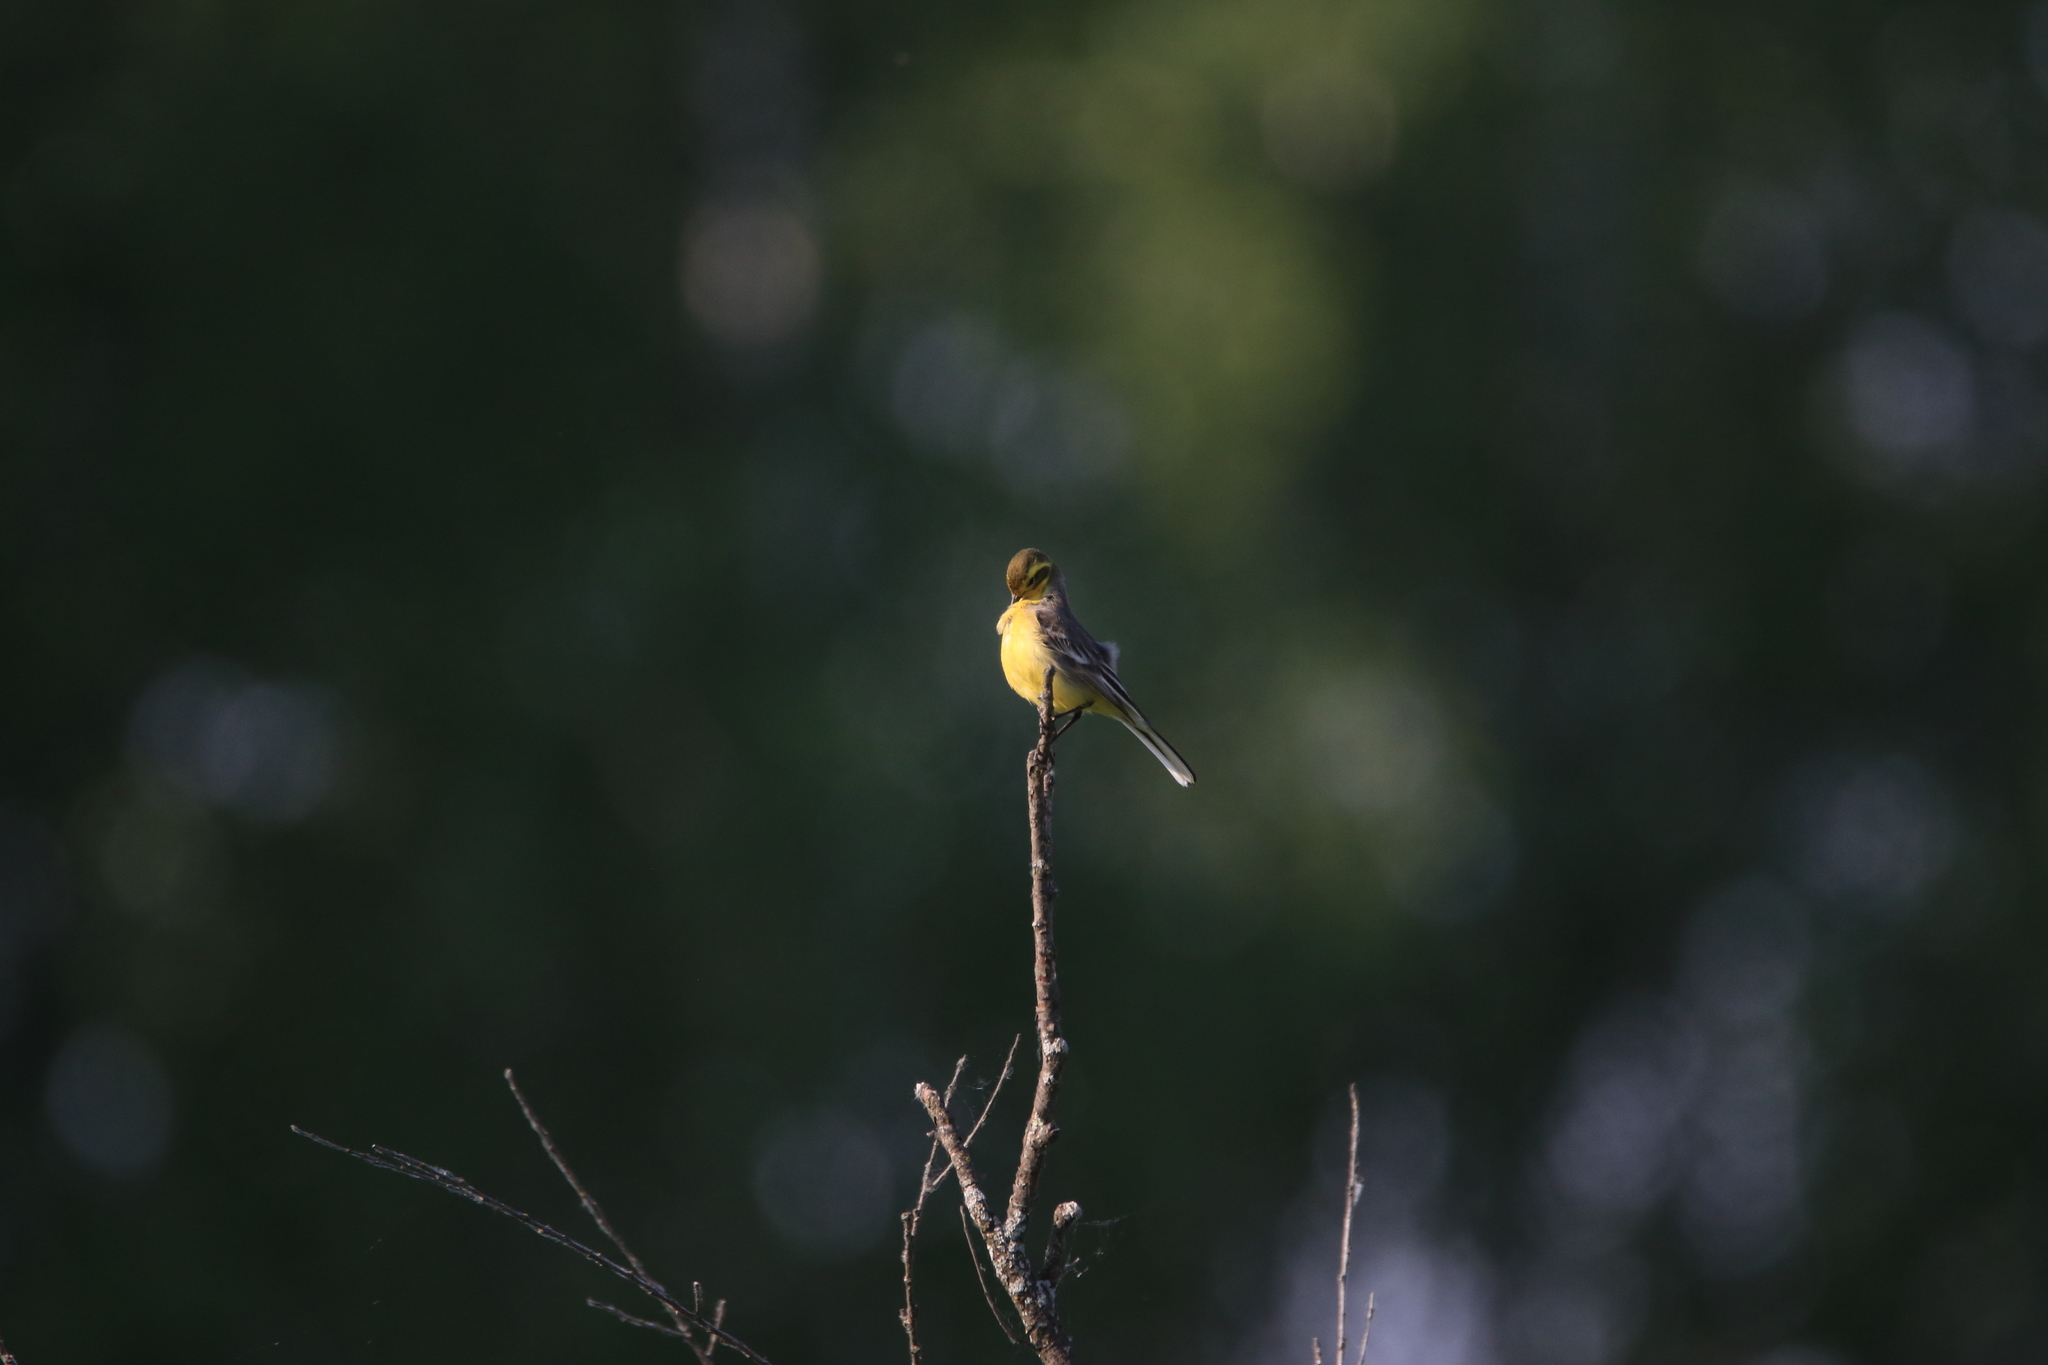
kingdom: Animalia
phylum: Chordata
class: Aves
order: Passeriformes
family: Motacillidae
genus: Motacilla
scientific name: Motacilla flava
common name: Western yellow wagtail
